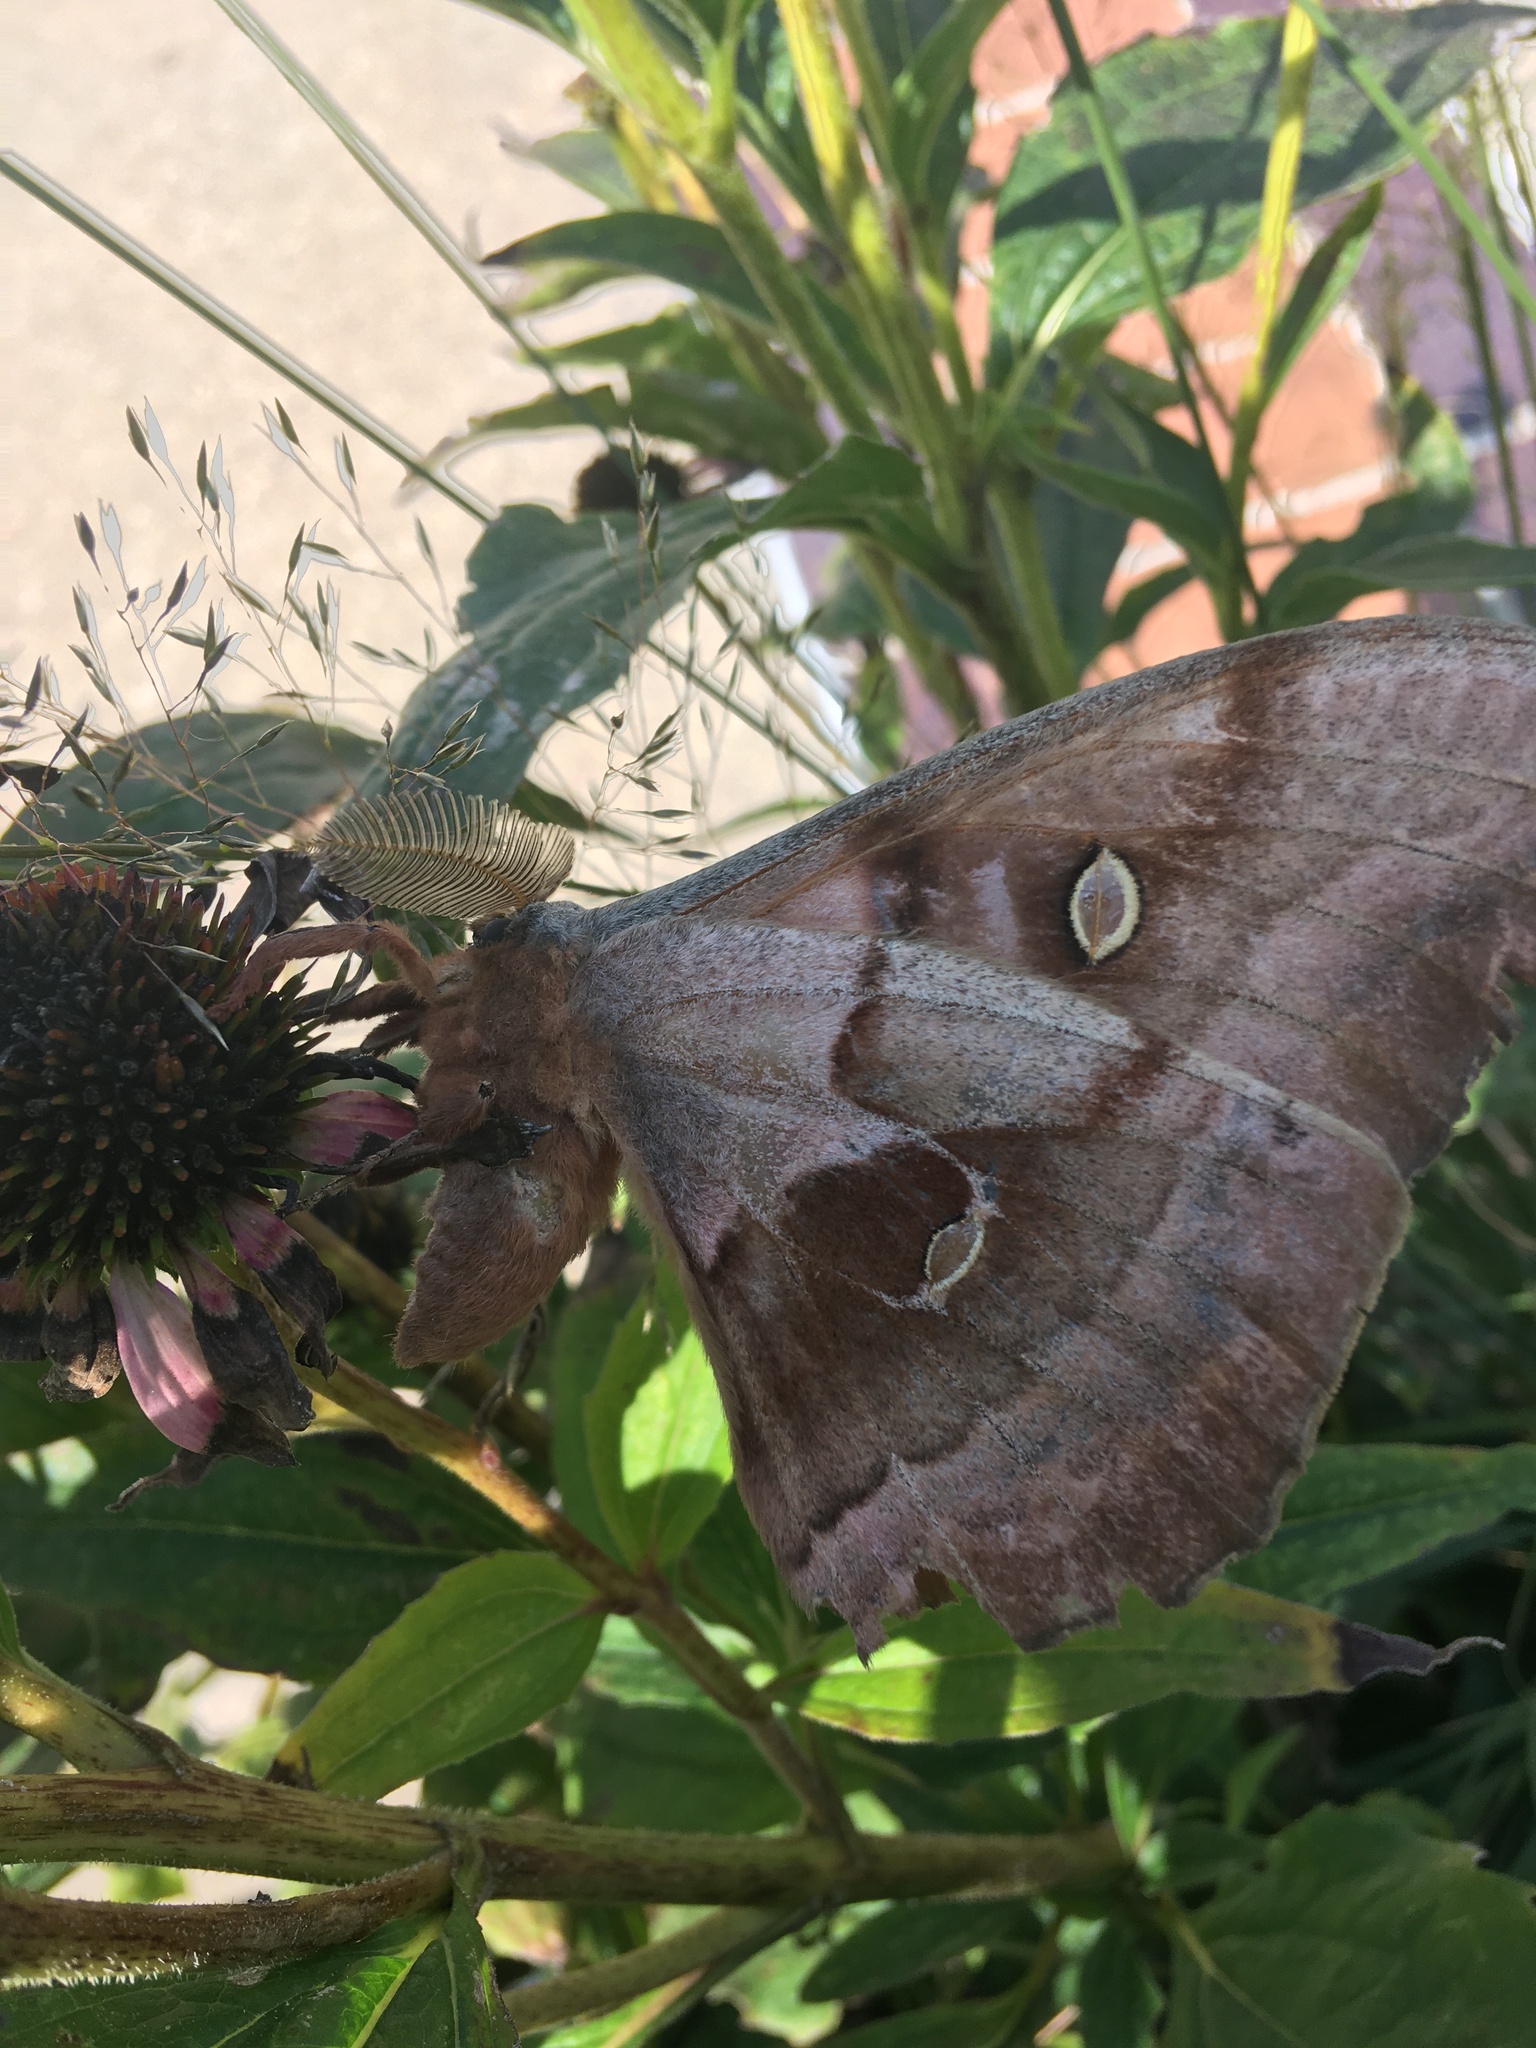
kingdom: Animalia
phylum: Arthropoda
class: Insecta
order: Lepidoptera
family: Saturniidae
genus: Antheraea
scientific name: Antheraea polyphemus
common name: Polyphemus moth
